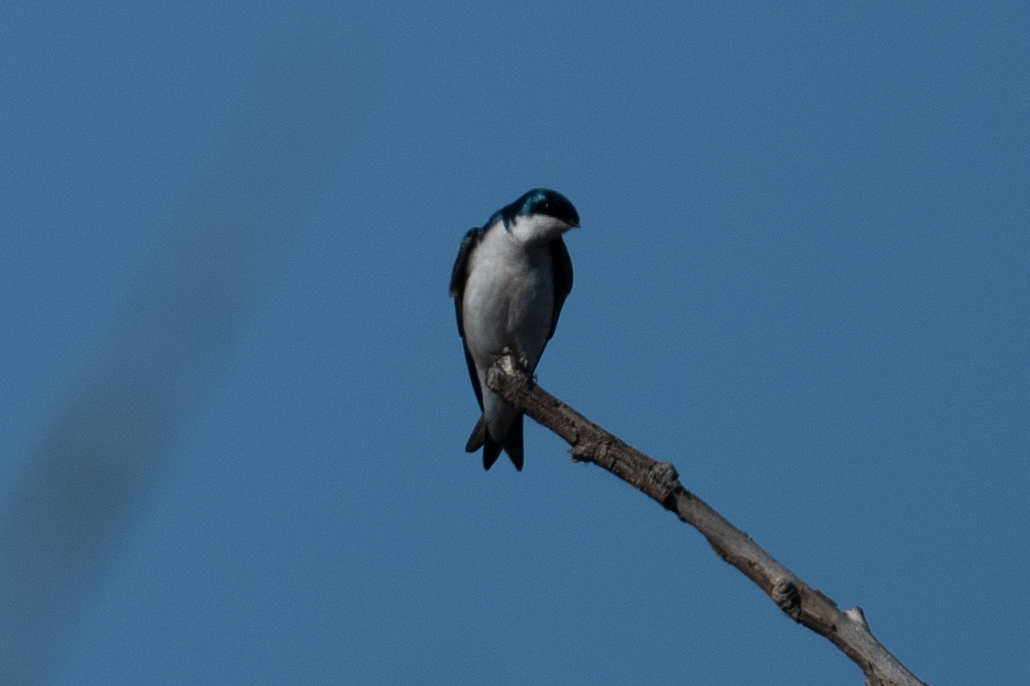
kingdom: Animalia
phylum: Chordata
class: Aves
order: Passeriformes
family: Hirundinidae
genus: Tachycineta
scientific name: Tachycineta bicolor
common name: Tree swallow
